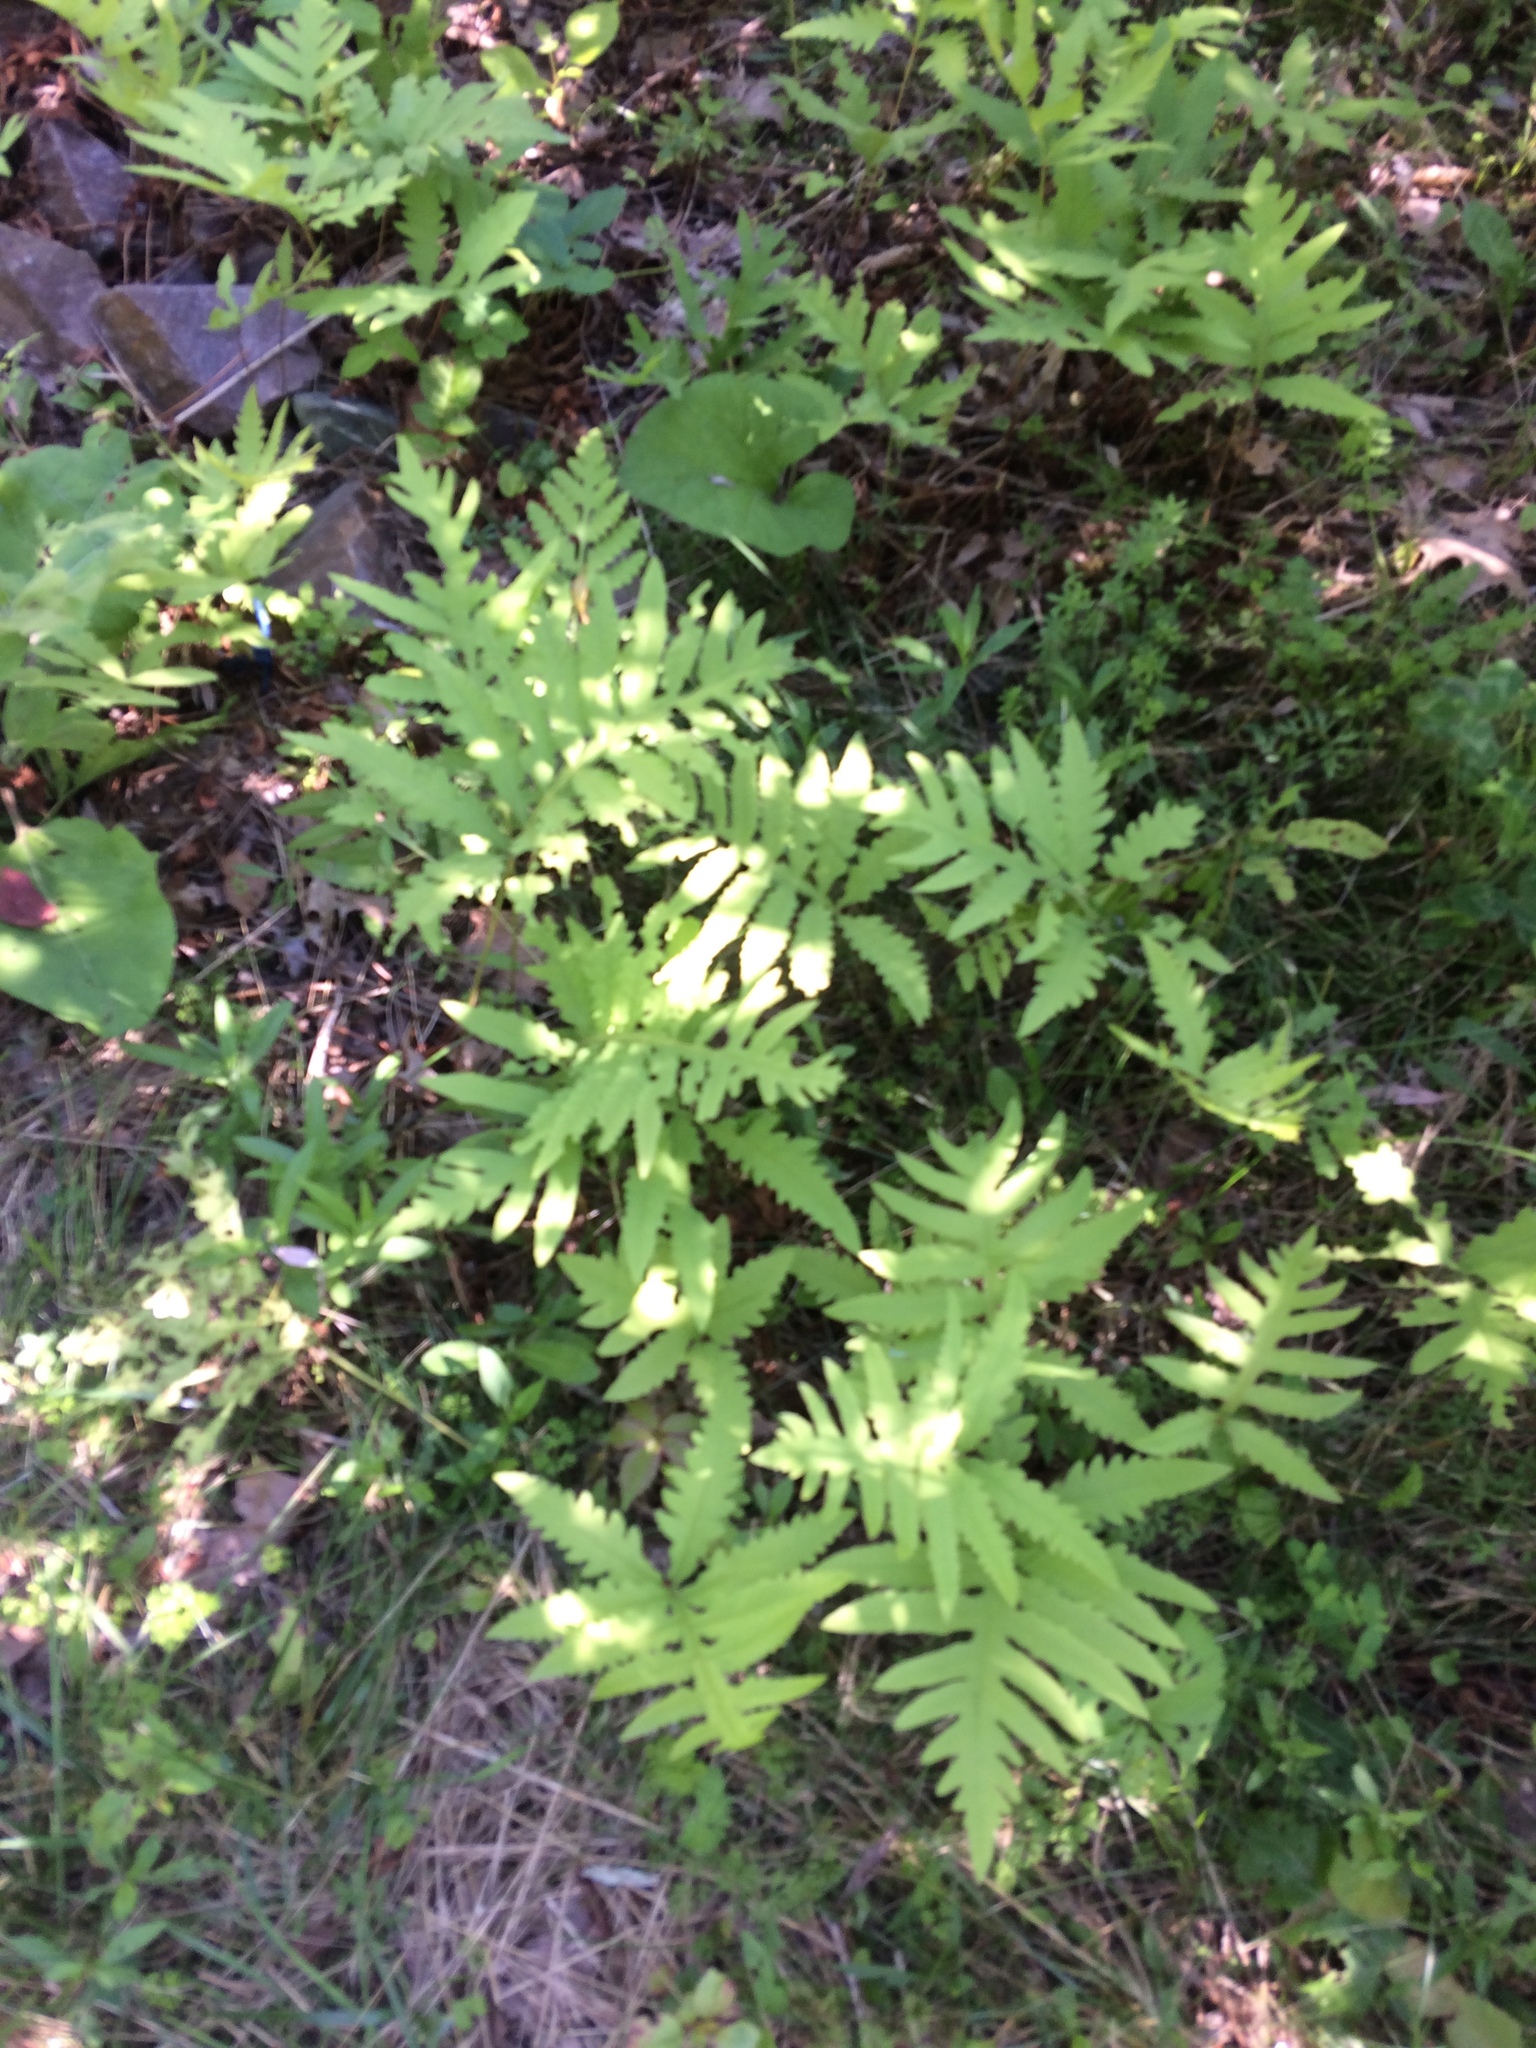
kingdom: Plantae
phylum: Tracheophyta
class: Polypodiopsida
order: Polypodiales
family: Onocleaceae
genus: Onoclea
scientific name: Onoclea sensibilis
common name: Sensitive fern
